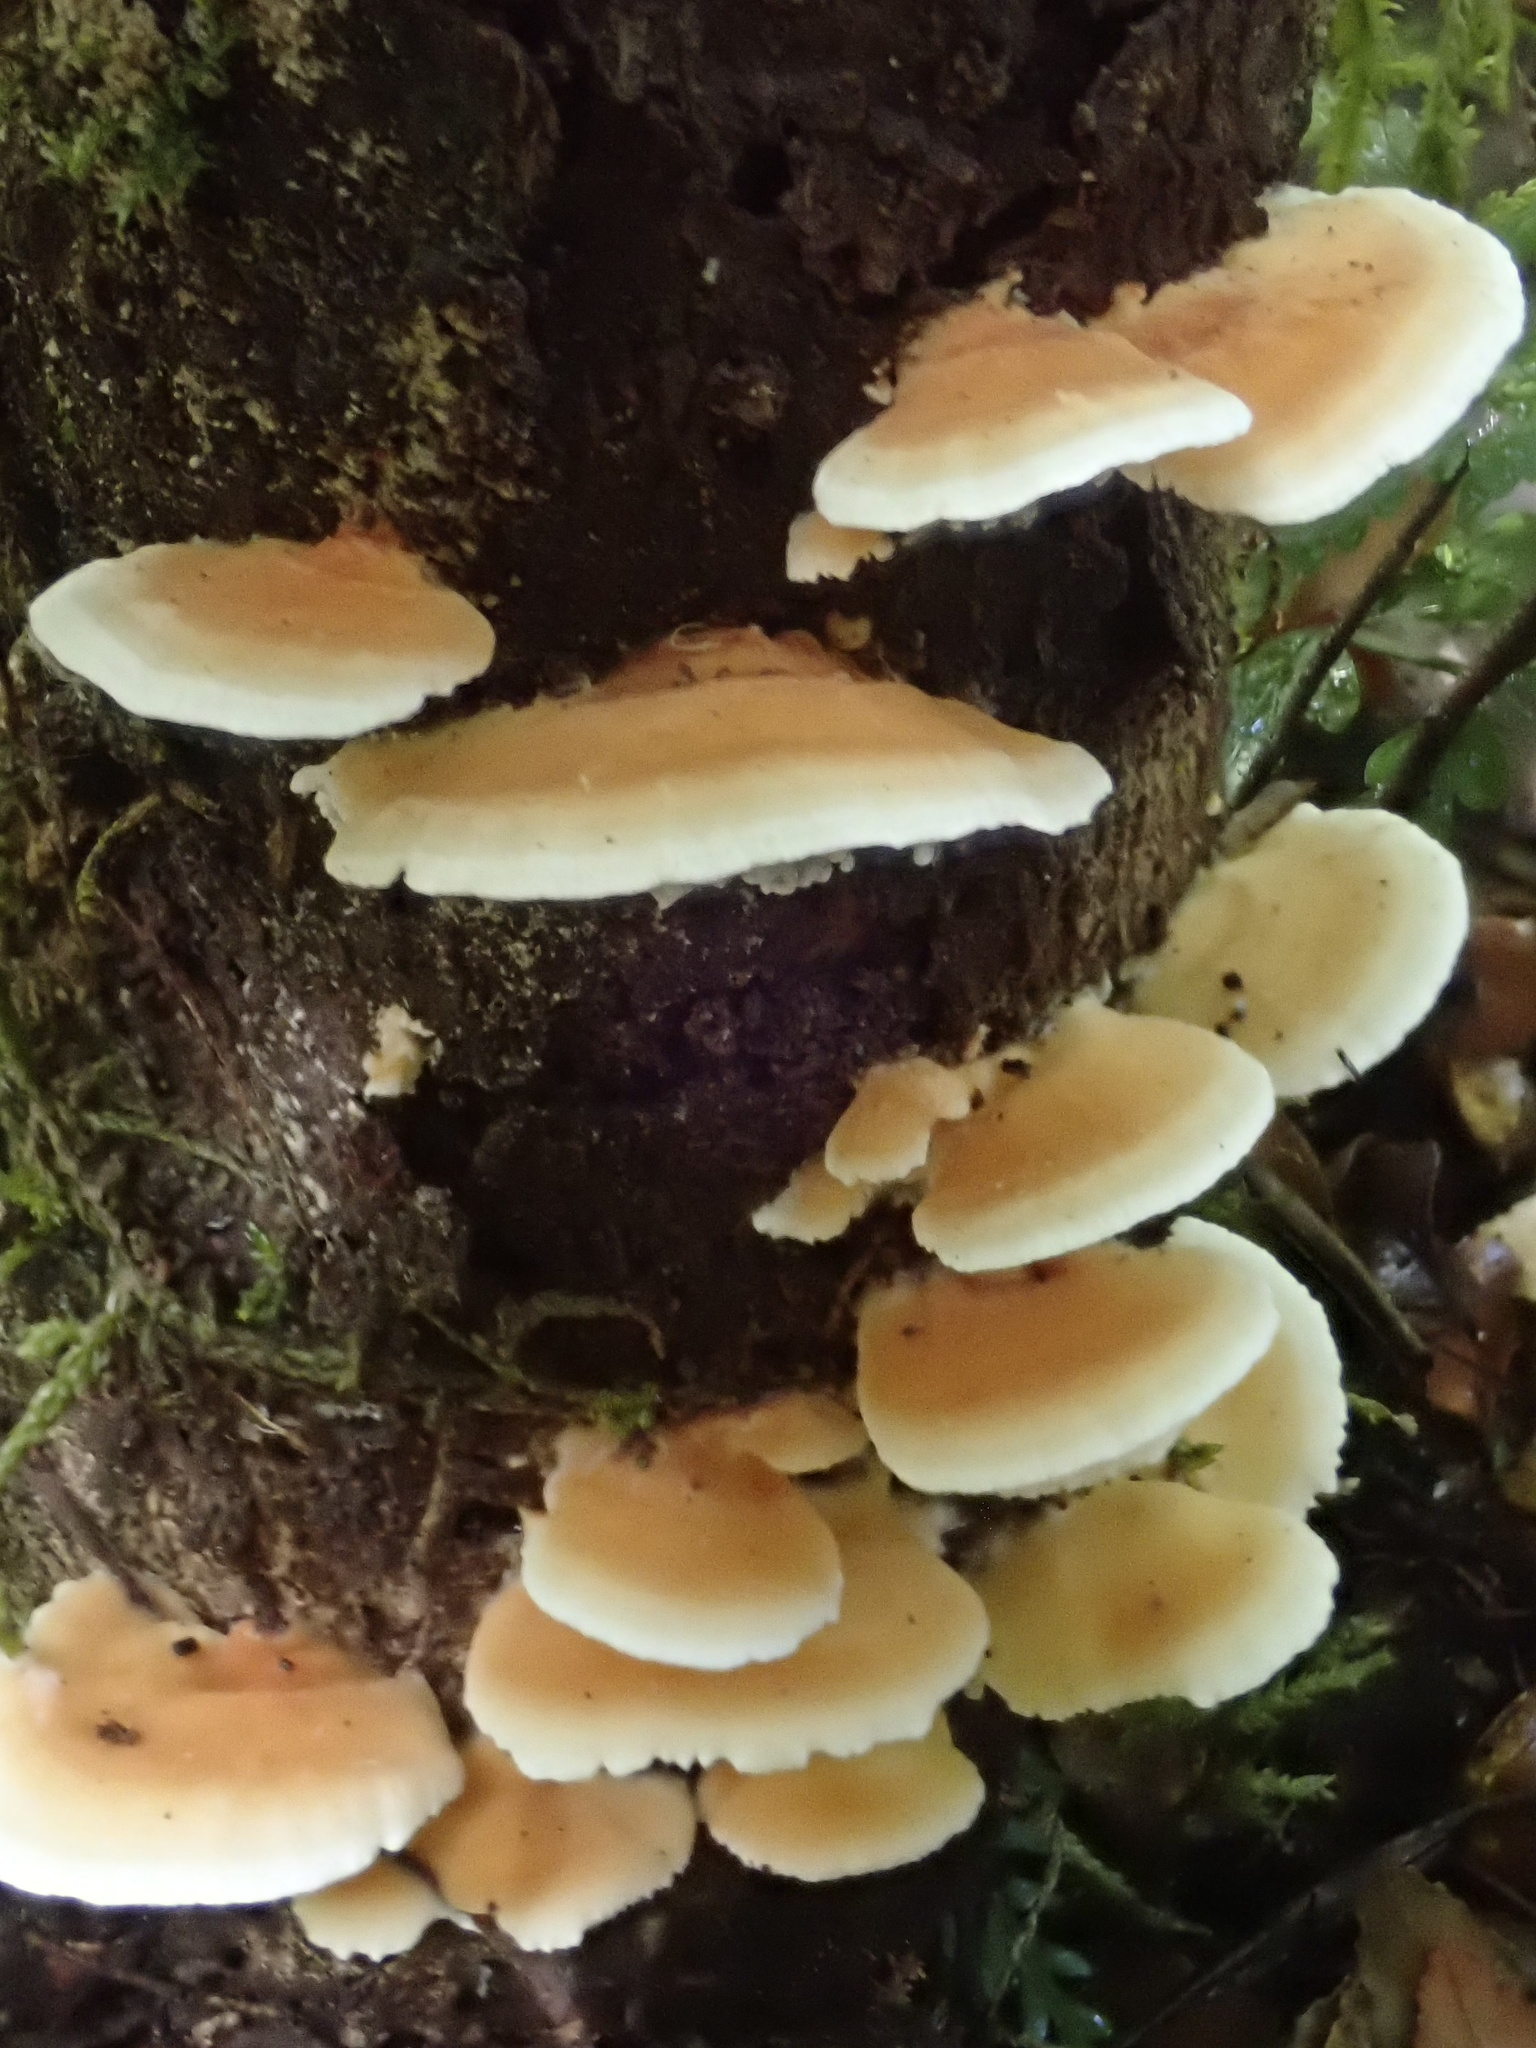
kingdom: Fungi
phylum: Basidiomycota
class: Agaricomycetes
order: Polyporales
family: Cerrenaceae
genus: Cerrena
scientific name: Cerrena zonata
